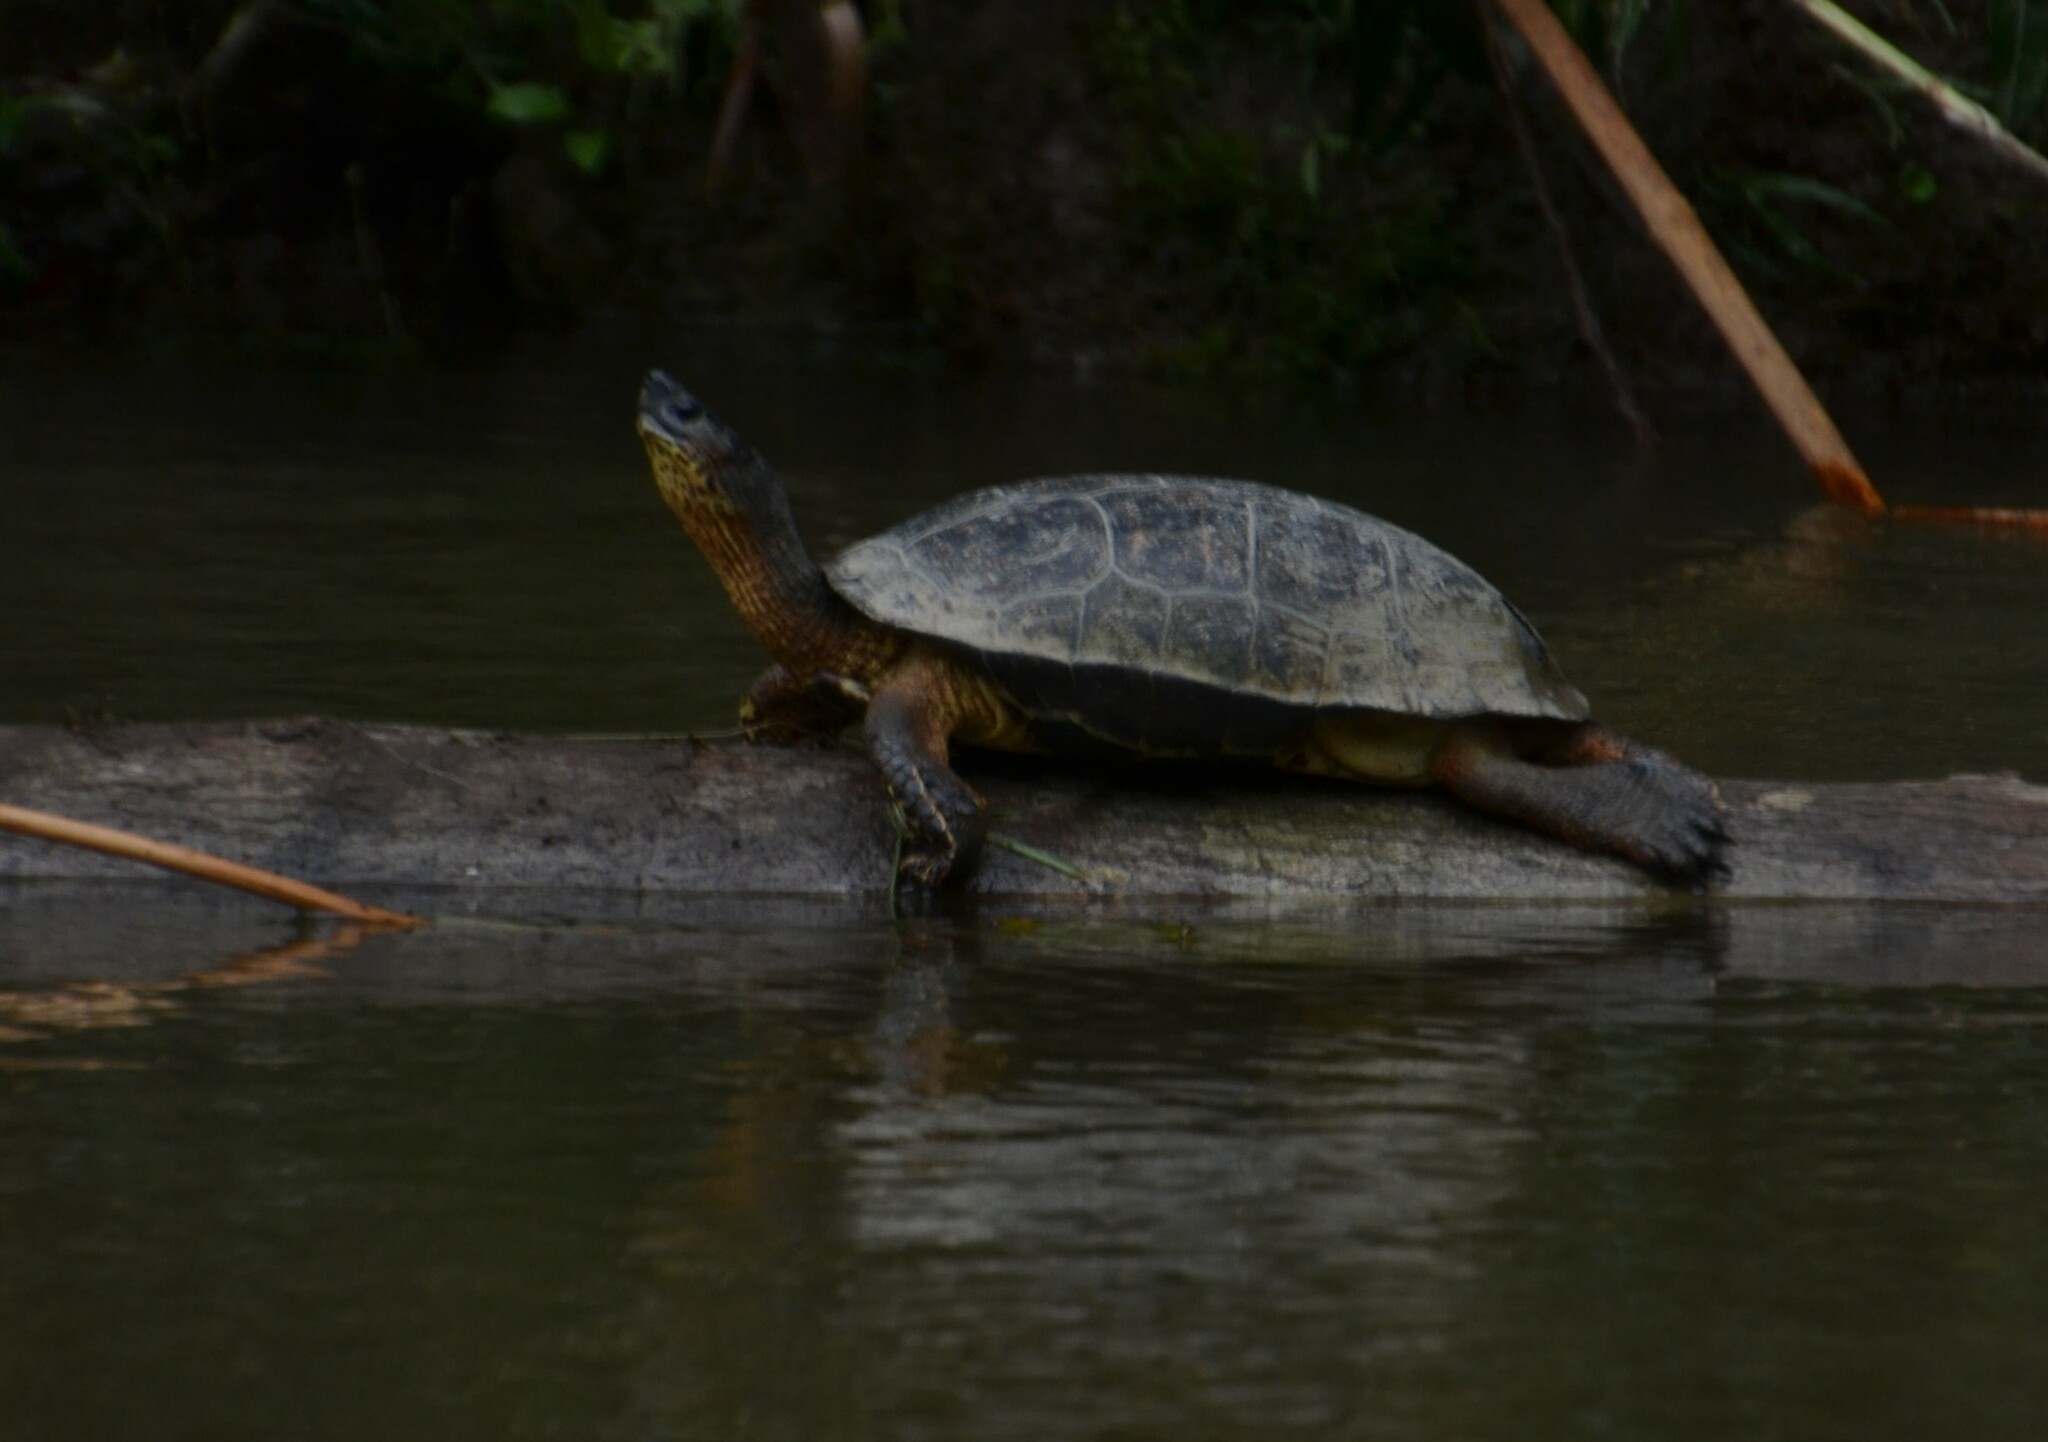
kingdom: Animalia
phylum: Chordata
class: Testudines
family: Geoemydidae
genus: Rhinoclemmys
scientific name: Rhinoclemmys funerea
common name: Black wood turtle
